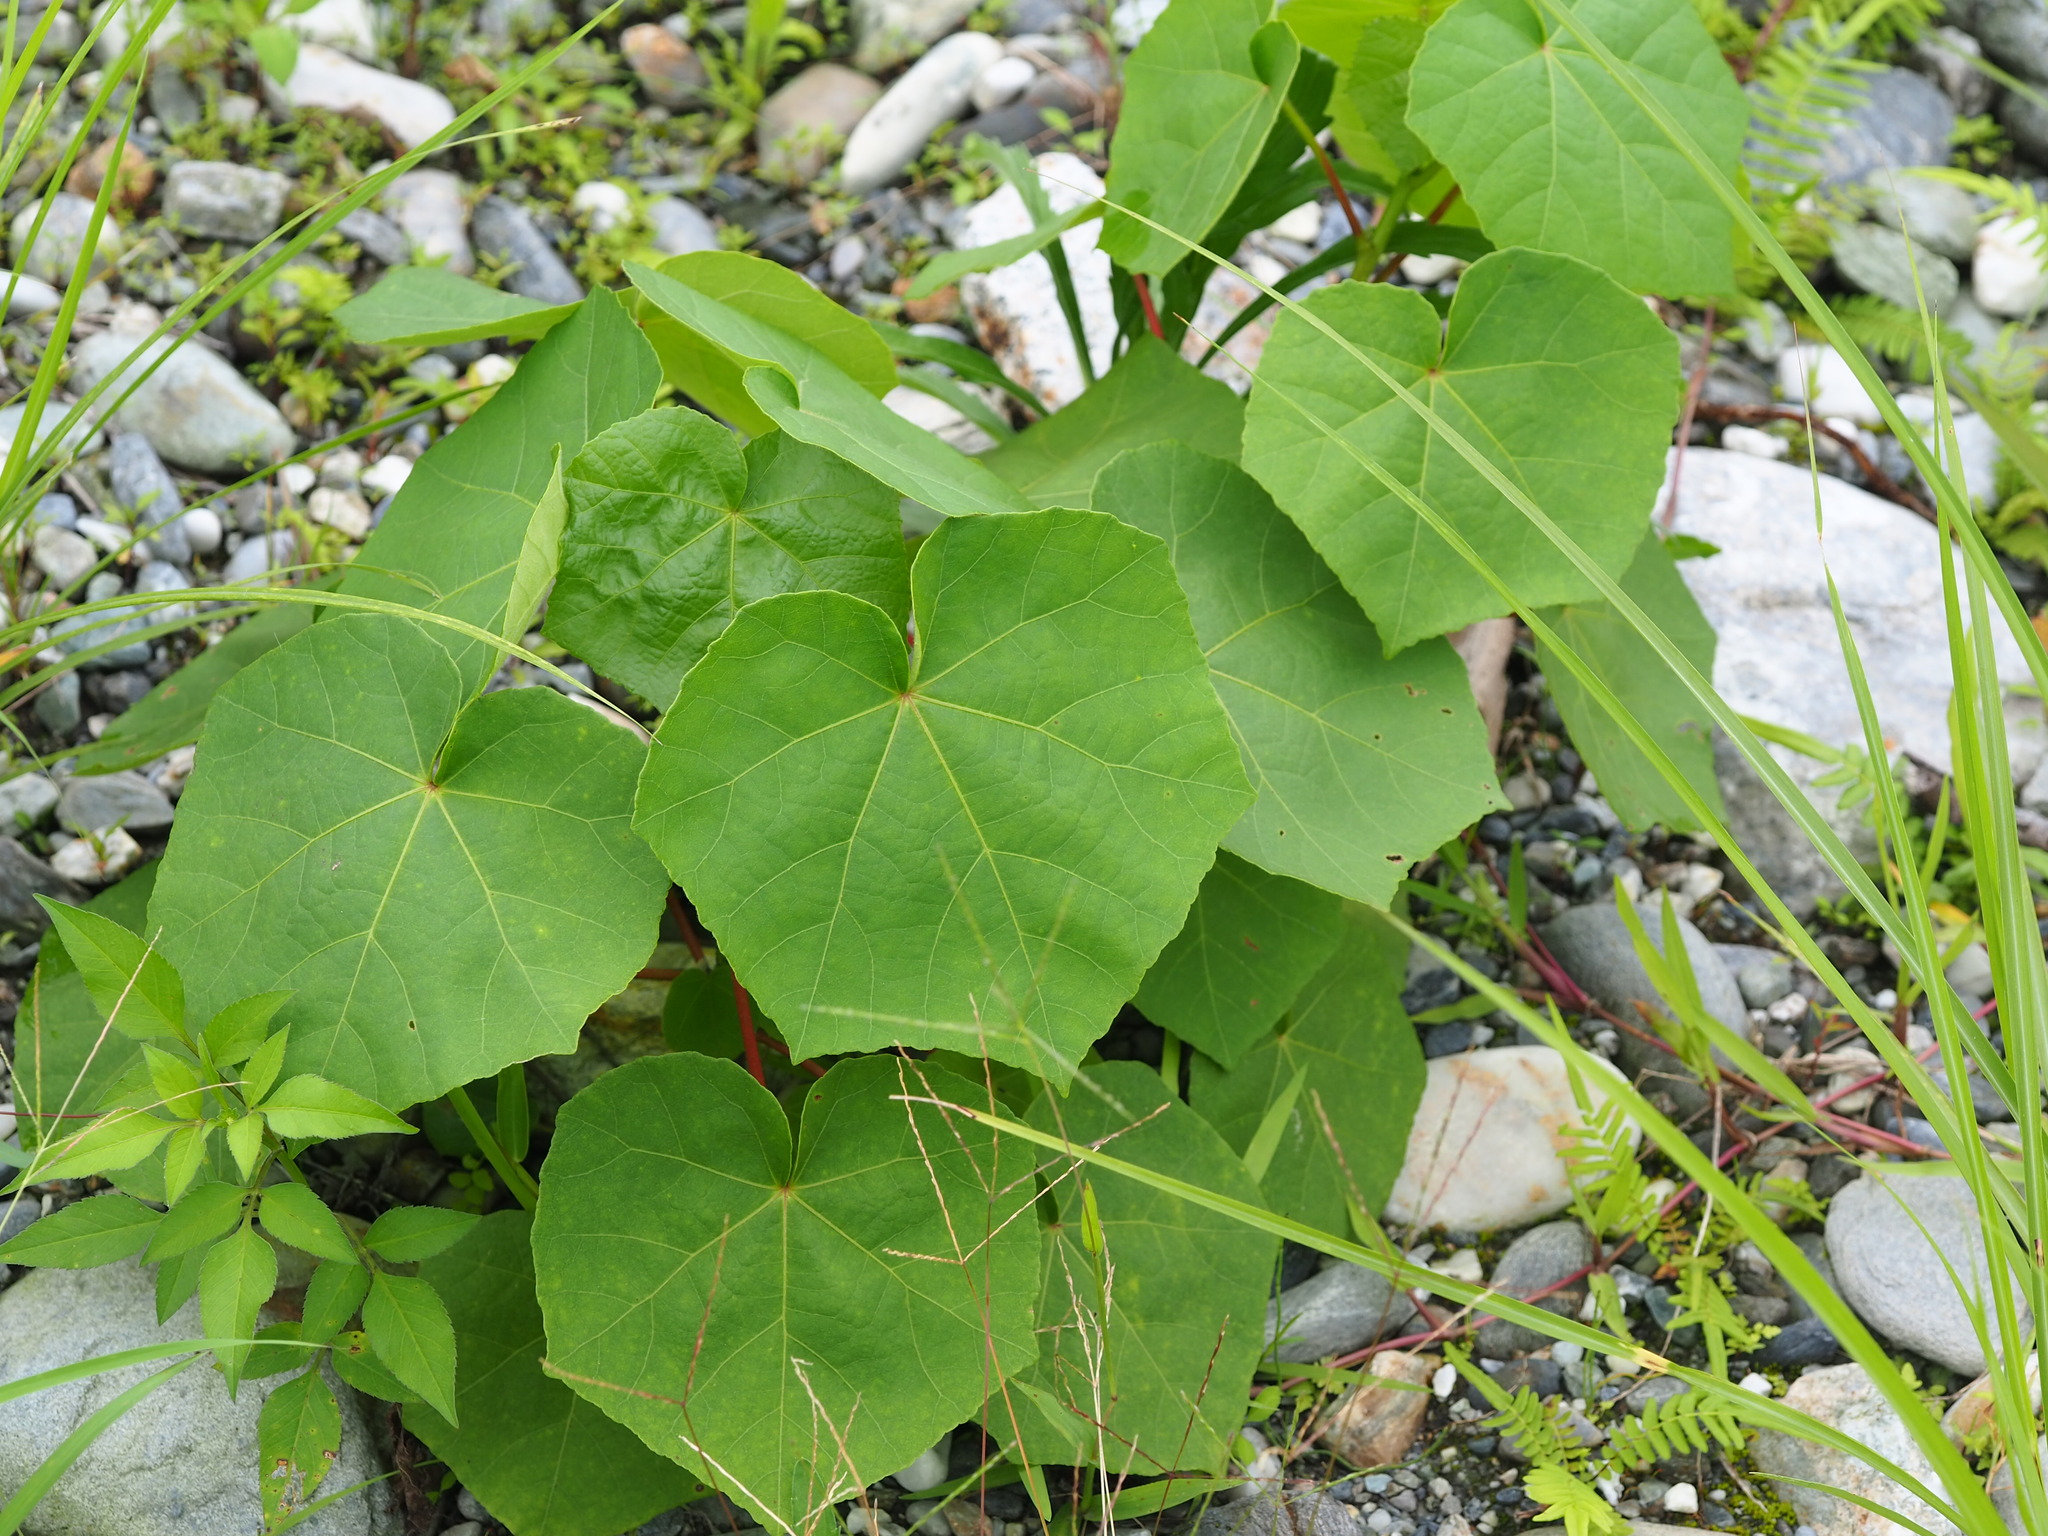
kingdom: Plantae
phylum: Tracheophyta
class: Magnoliopsida
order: Malvales
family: Malvaceae
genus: Hibiscus
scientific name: Hibiscus taiwanensis
